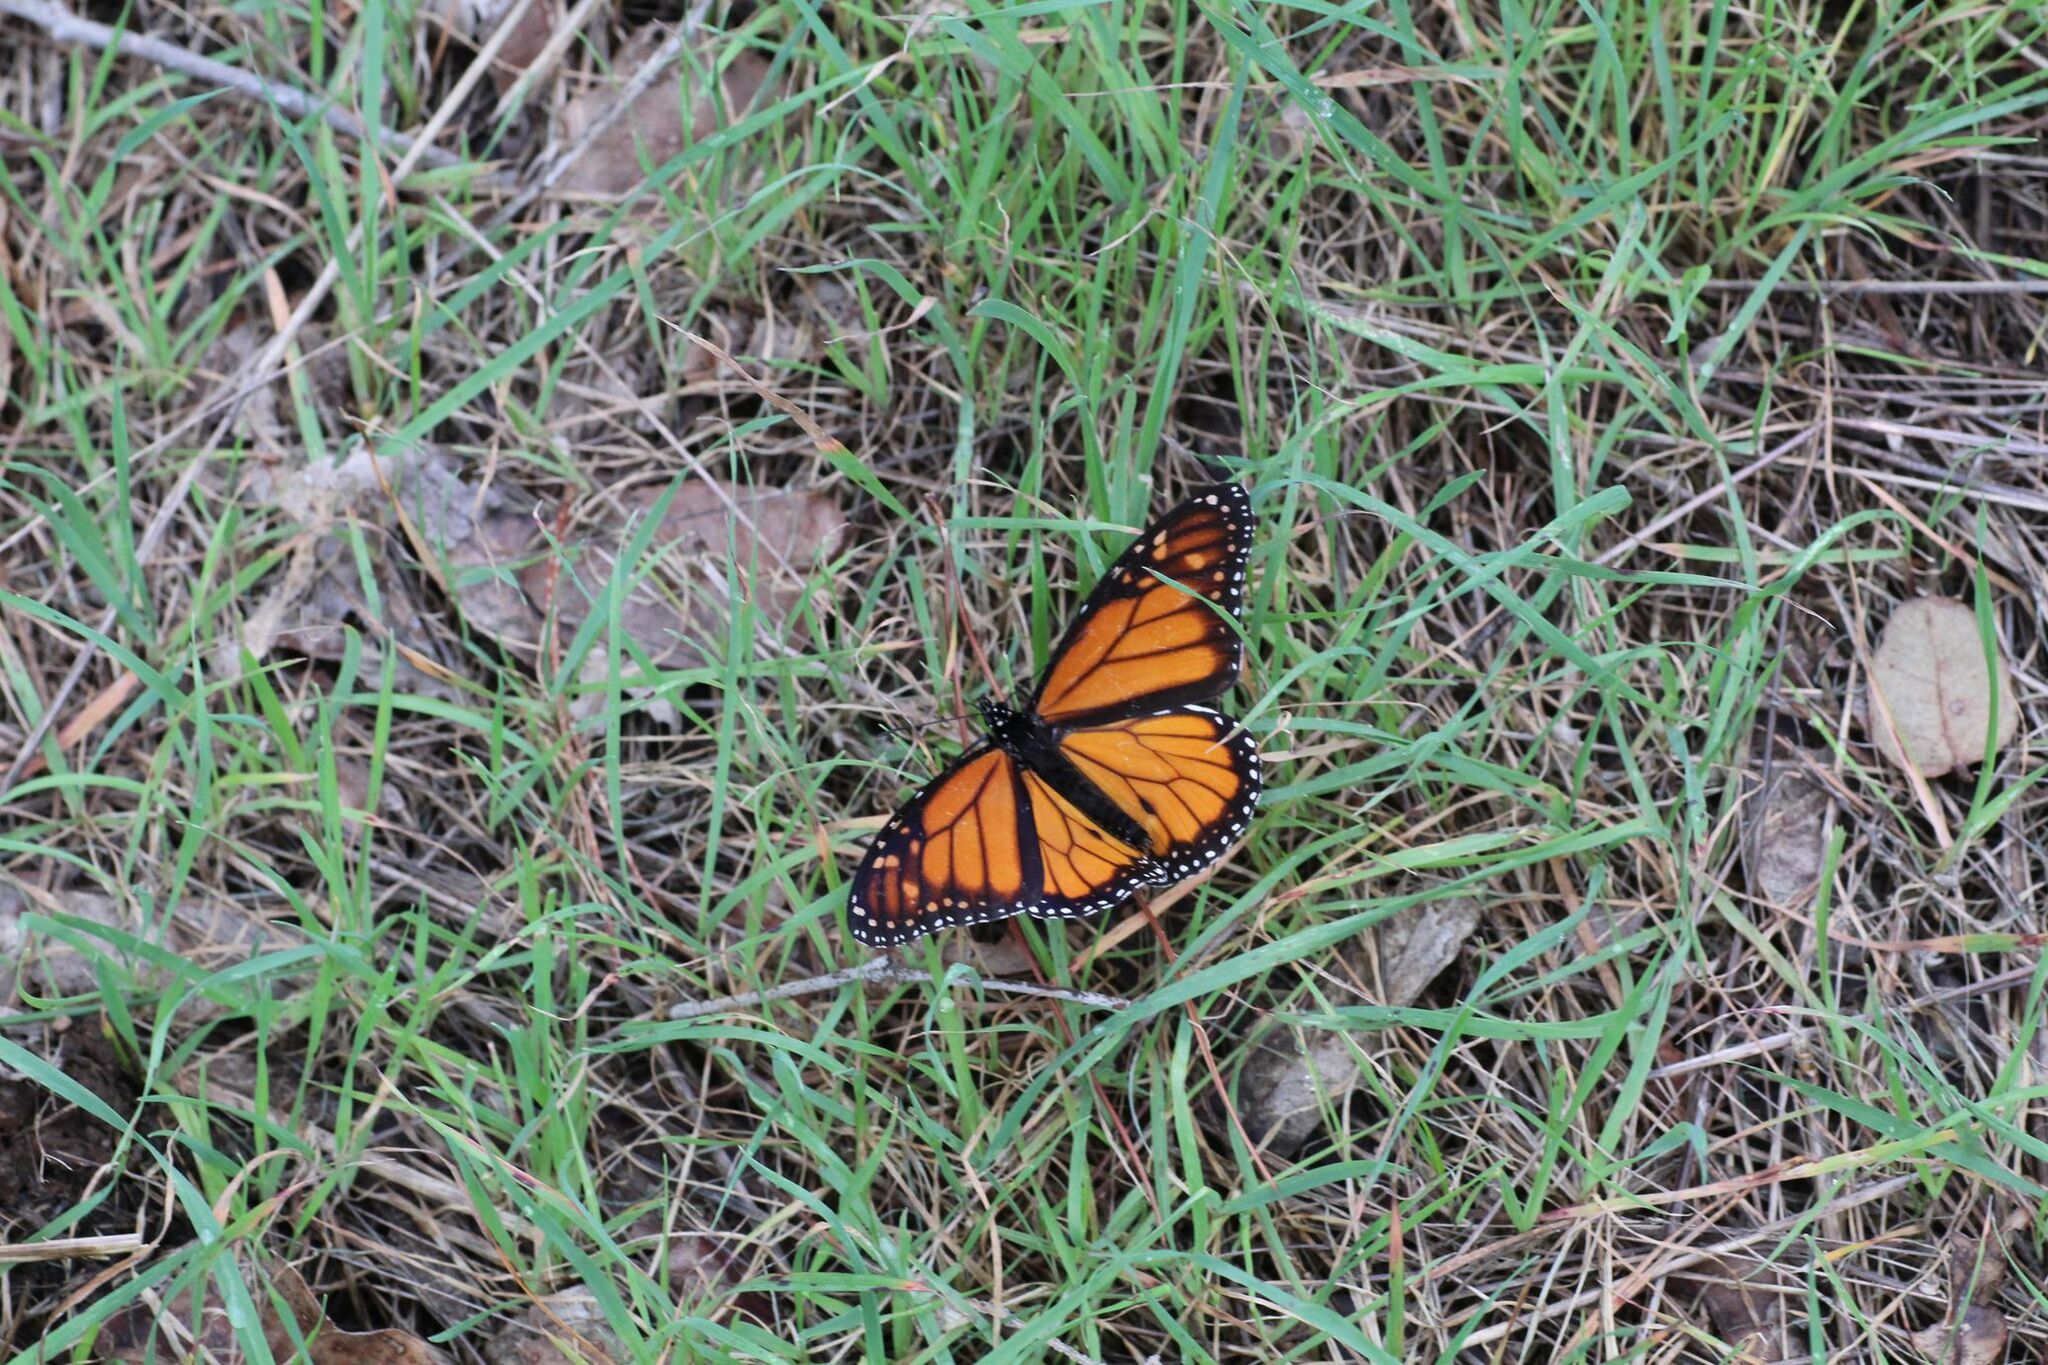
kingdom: Animalia
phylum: Arthropoda
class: Insecta
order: Lepidoptera
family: Nymphalidae
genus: Danaus
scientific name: Danaus plexippus
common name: Monarch
